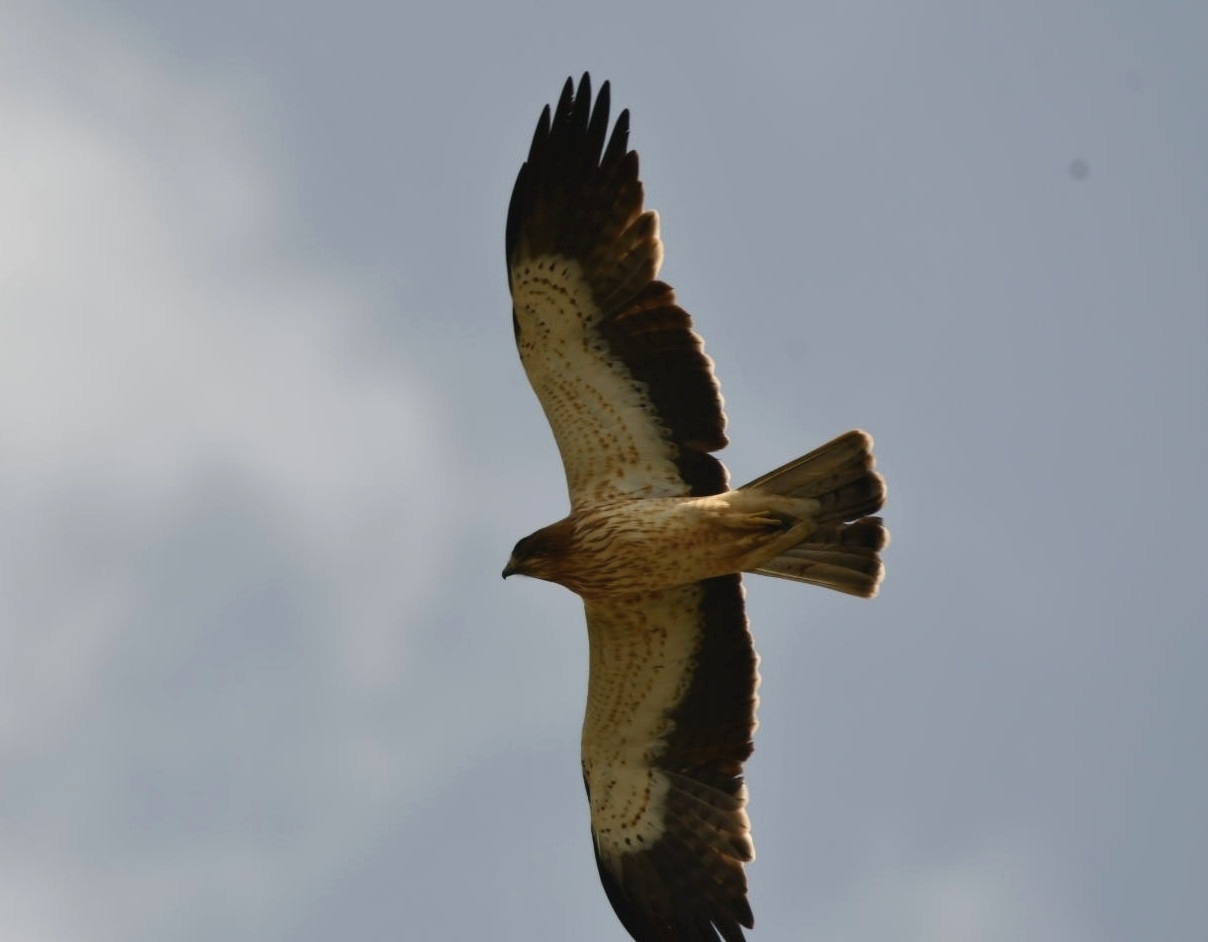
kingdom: Animalia
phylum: Chordata
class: Aves
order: Accipitriformes
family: Accipitridae
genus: Hieraaetus
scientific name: Hieraaetus pennatus
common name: Booted eagle
